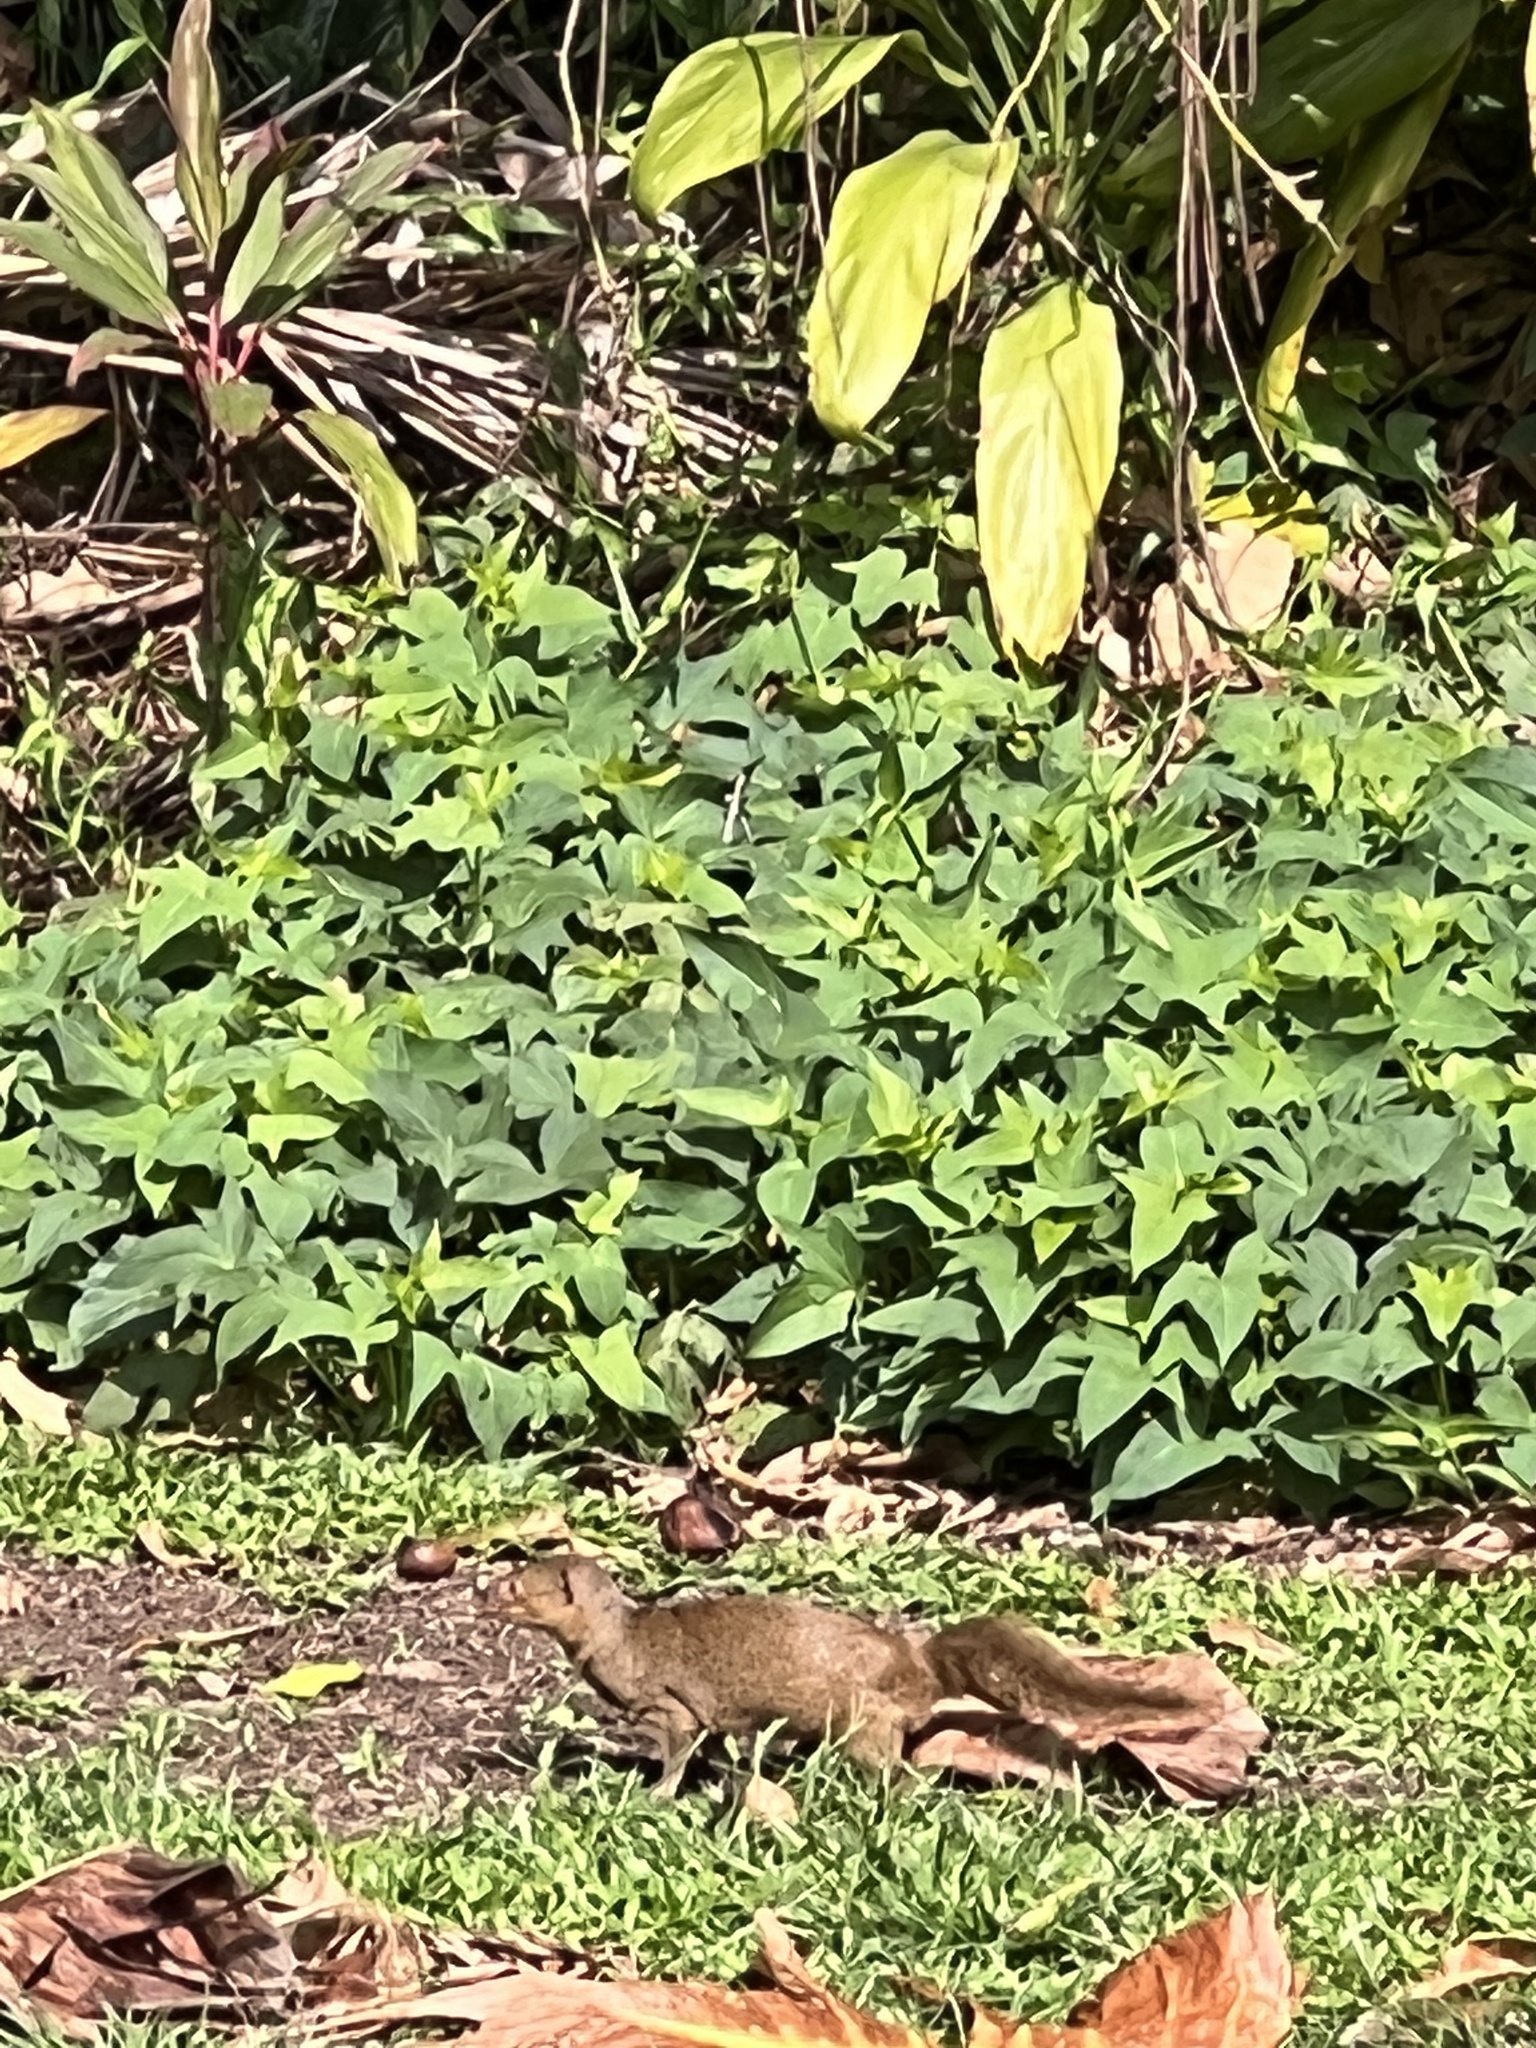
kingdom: Animalia
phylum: Chordata
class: Mammalia
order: Carnivora
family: Herpestidae
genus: Herpestes
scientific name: Herpestes javanicus
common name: Small asian mongoose
